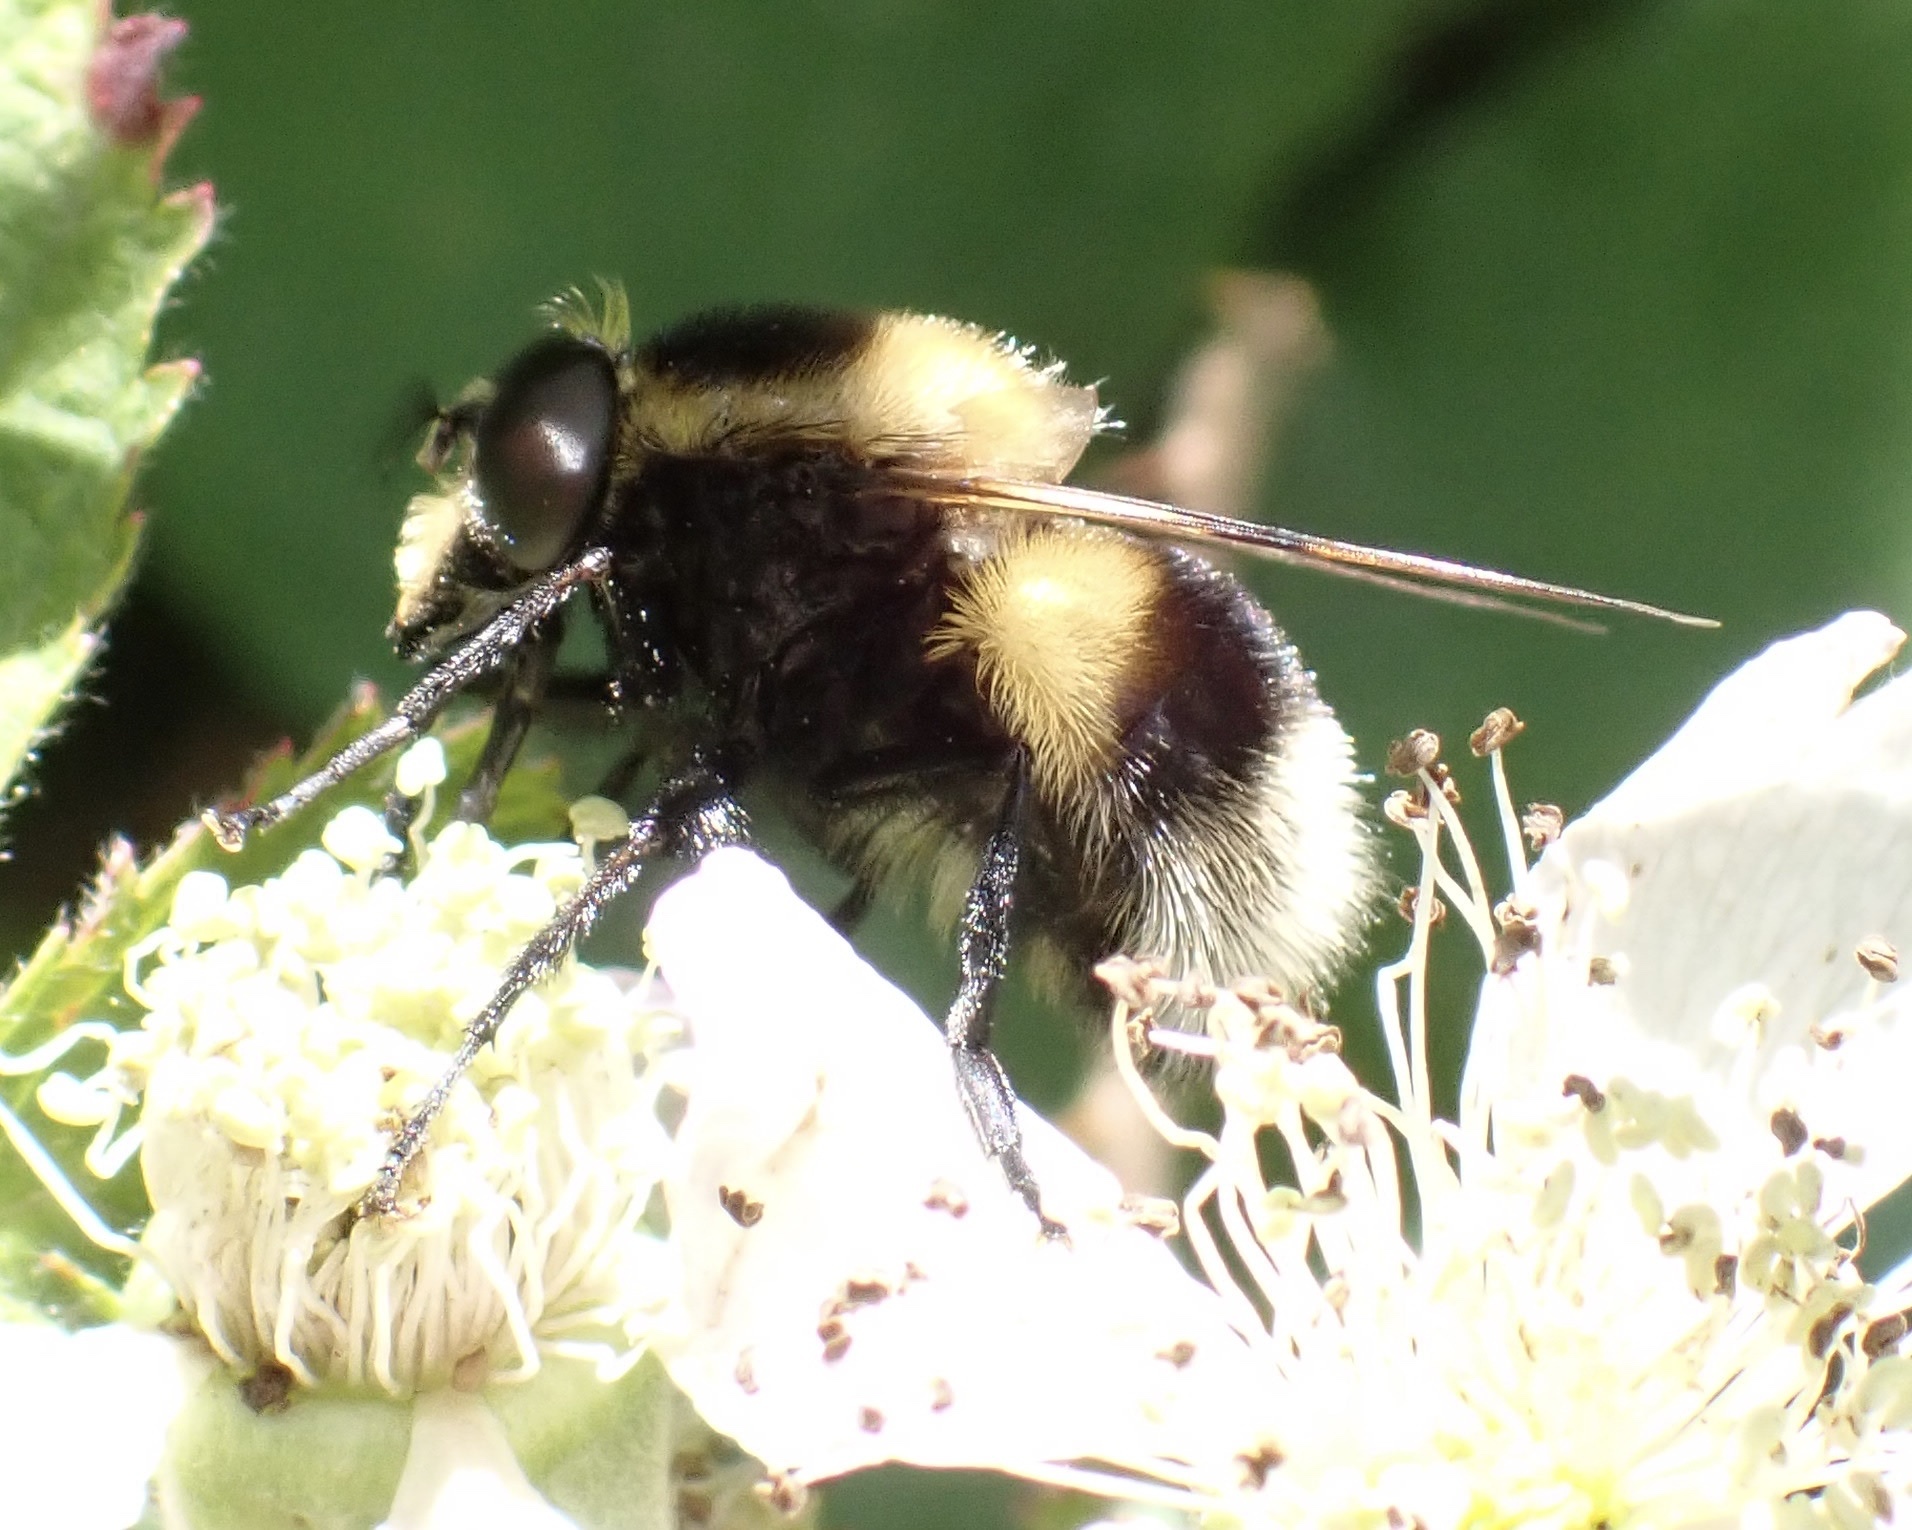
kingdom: Animalia
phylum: Arthropoda
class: Insecta
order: Diptera
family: Syrphidae
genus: Volucella
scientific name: Volucella bombylans
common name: Bumble bee hover fly
